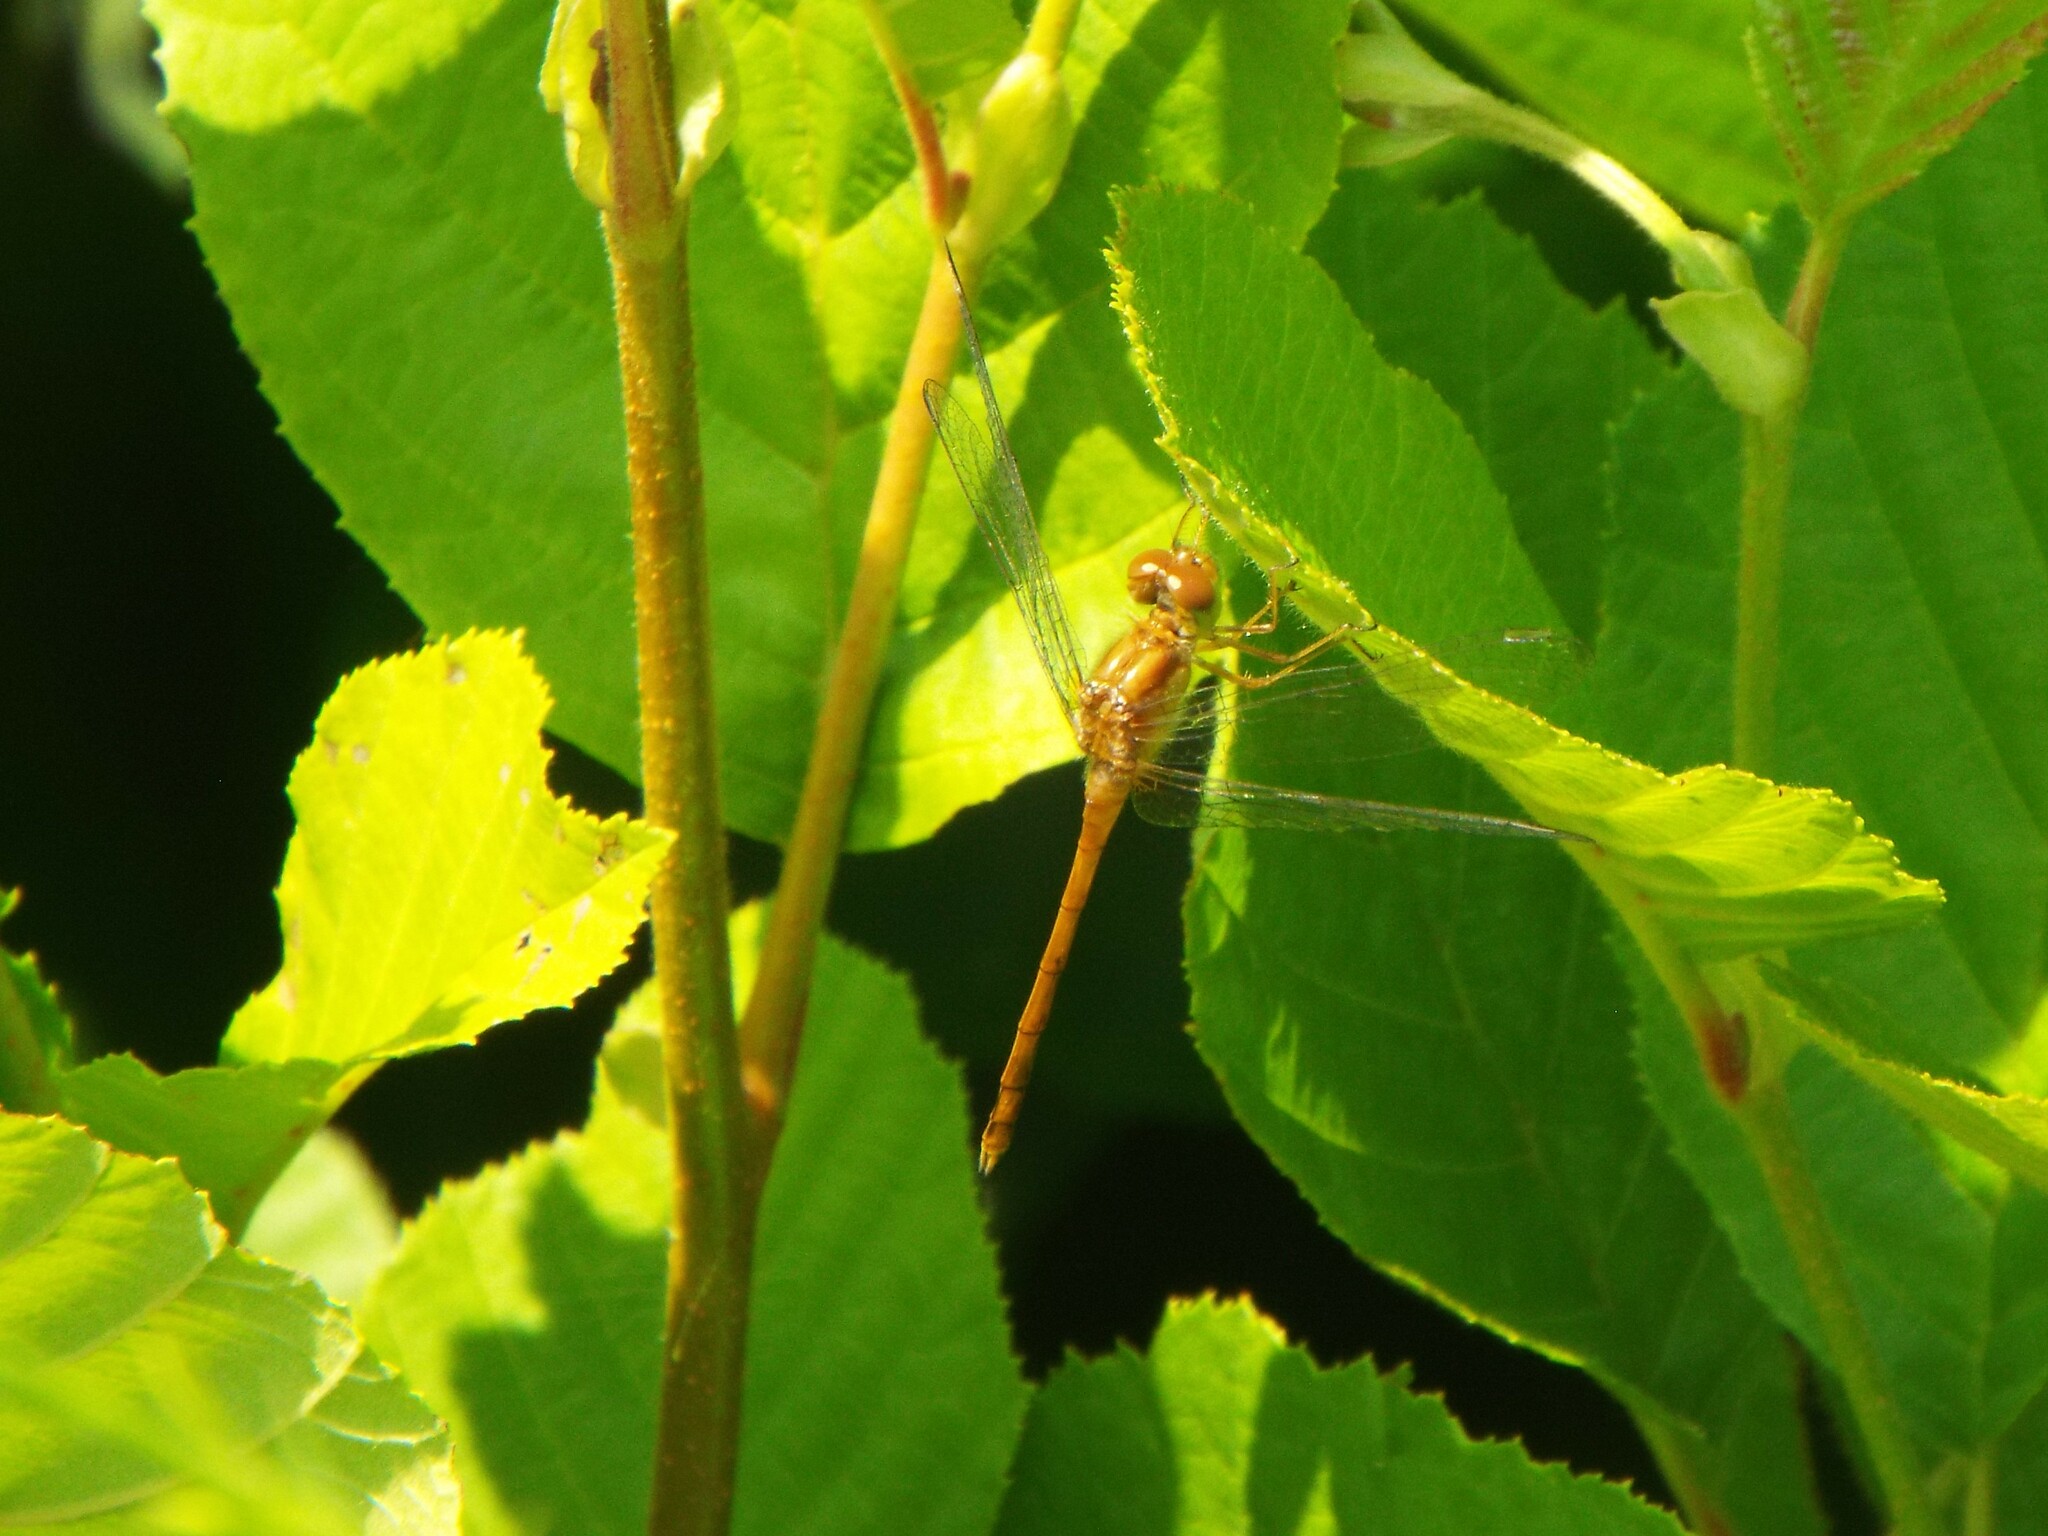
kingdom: Animalia
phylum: Arthropoda
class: Insecta
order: Odonata
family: Libellulidae
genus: Sympetrum
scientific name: Sympetrum vicinum
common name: Autumn meadowhawk
